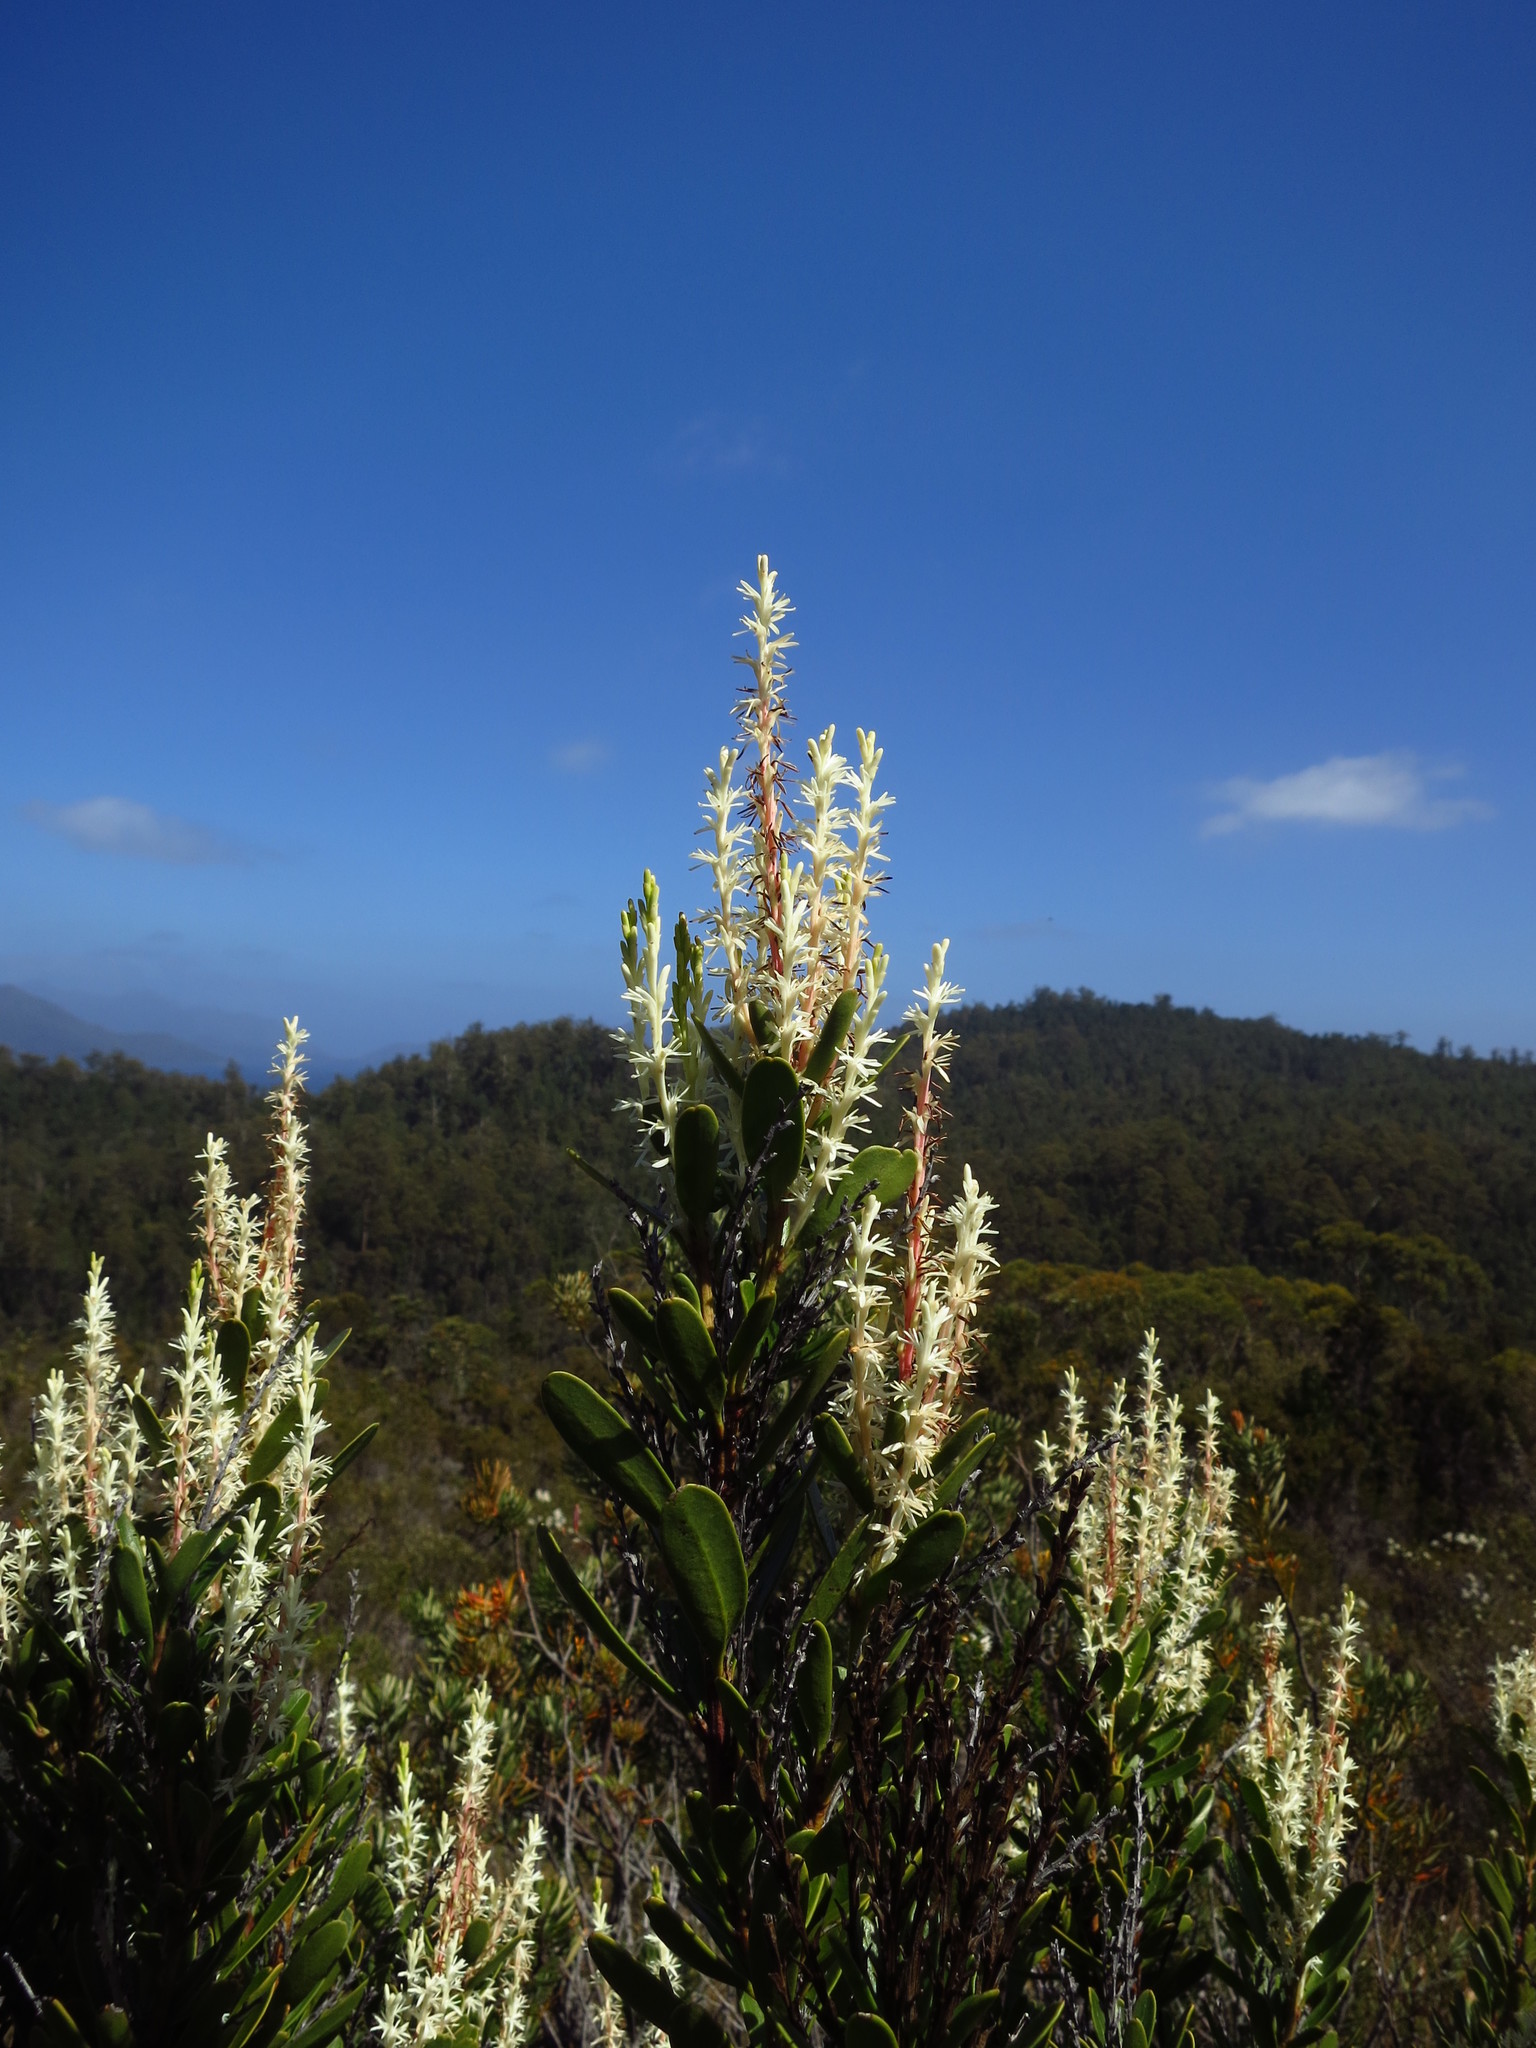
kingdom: Plantae
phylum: Tracheophyta
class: Magnoliopsida
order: Proteales
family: Proteaceae
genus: Agastachys
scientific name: Agastachys odorata
